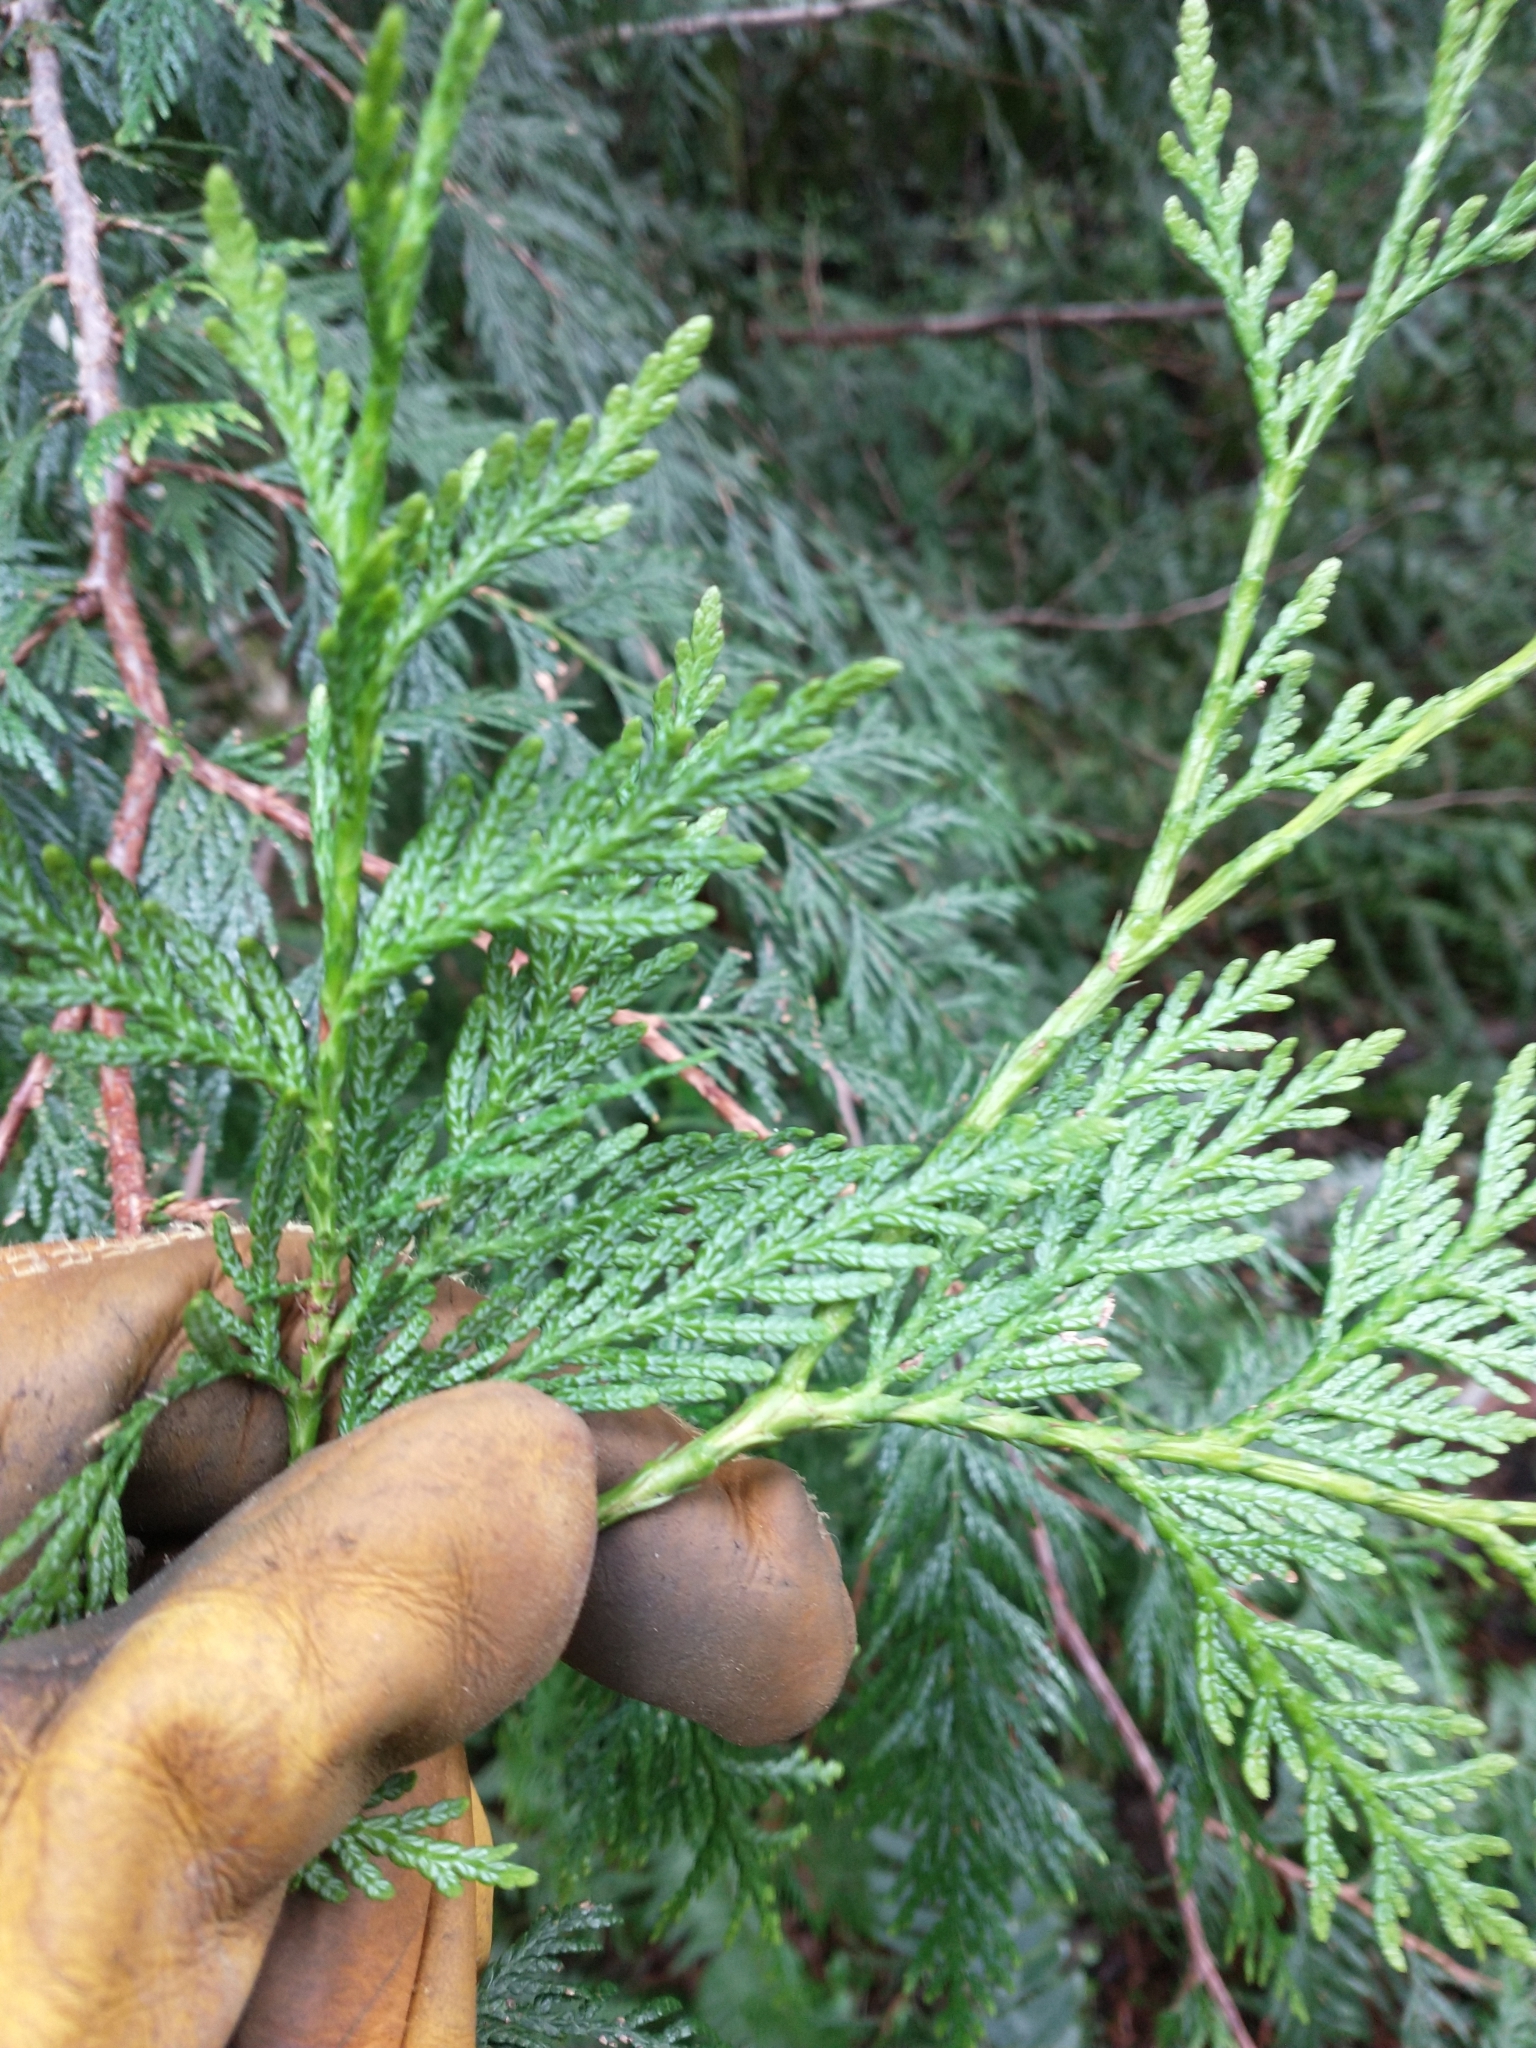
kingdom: Plantae
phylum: Tracheophyta
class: Pinopsida
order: Pinales
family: Cupressaceae
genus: Thuja
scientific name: Thuja plicata
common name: Western red-cedar
